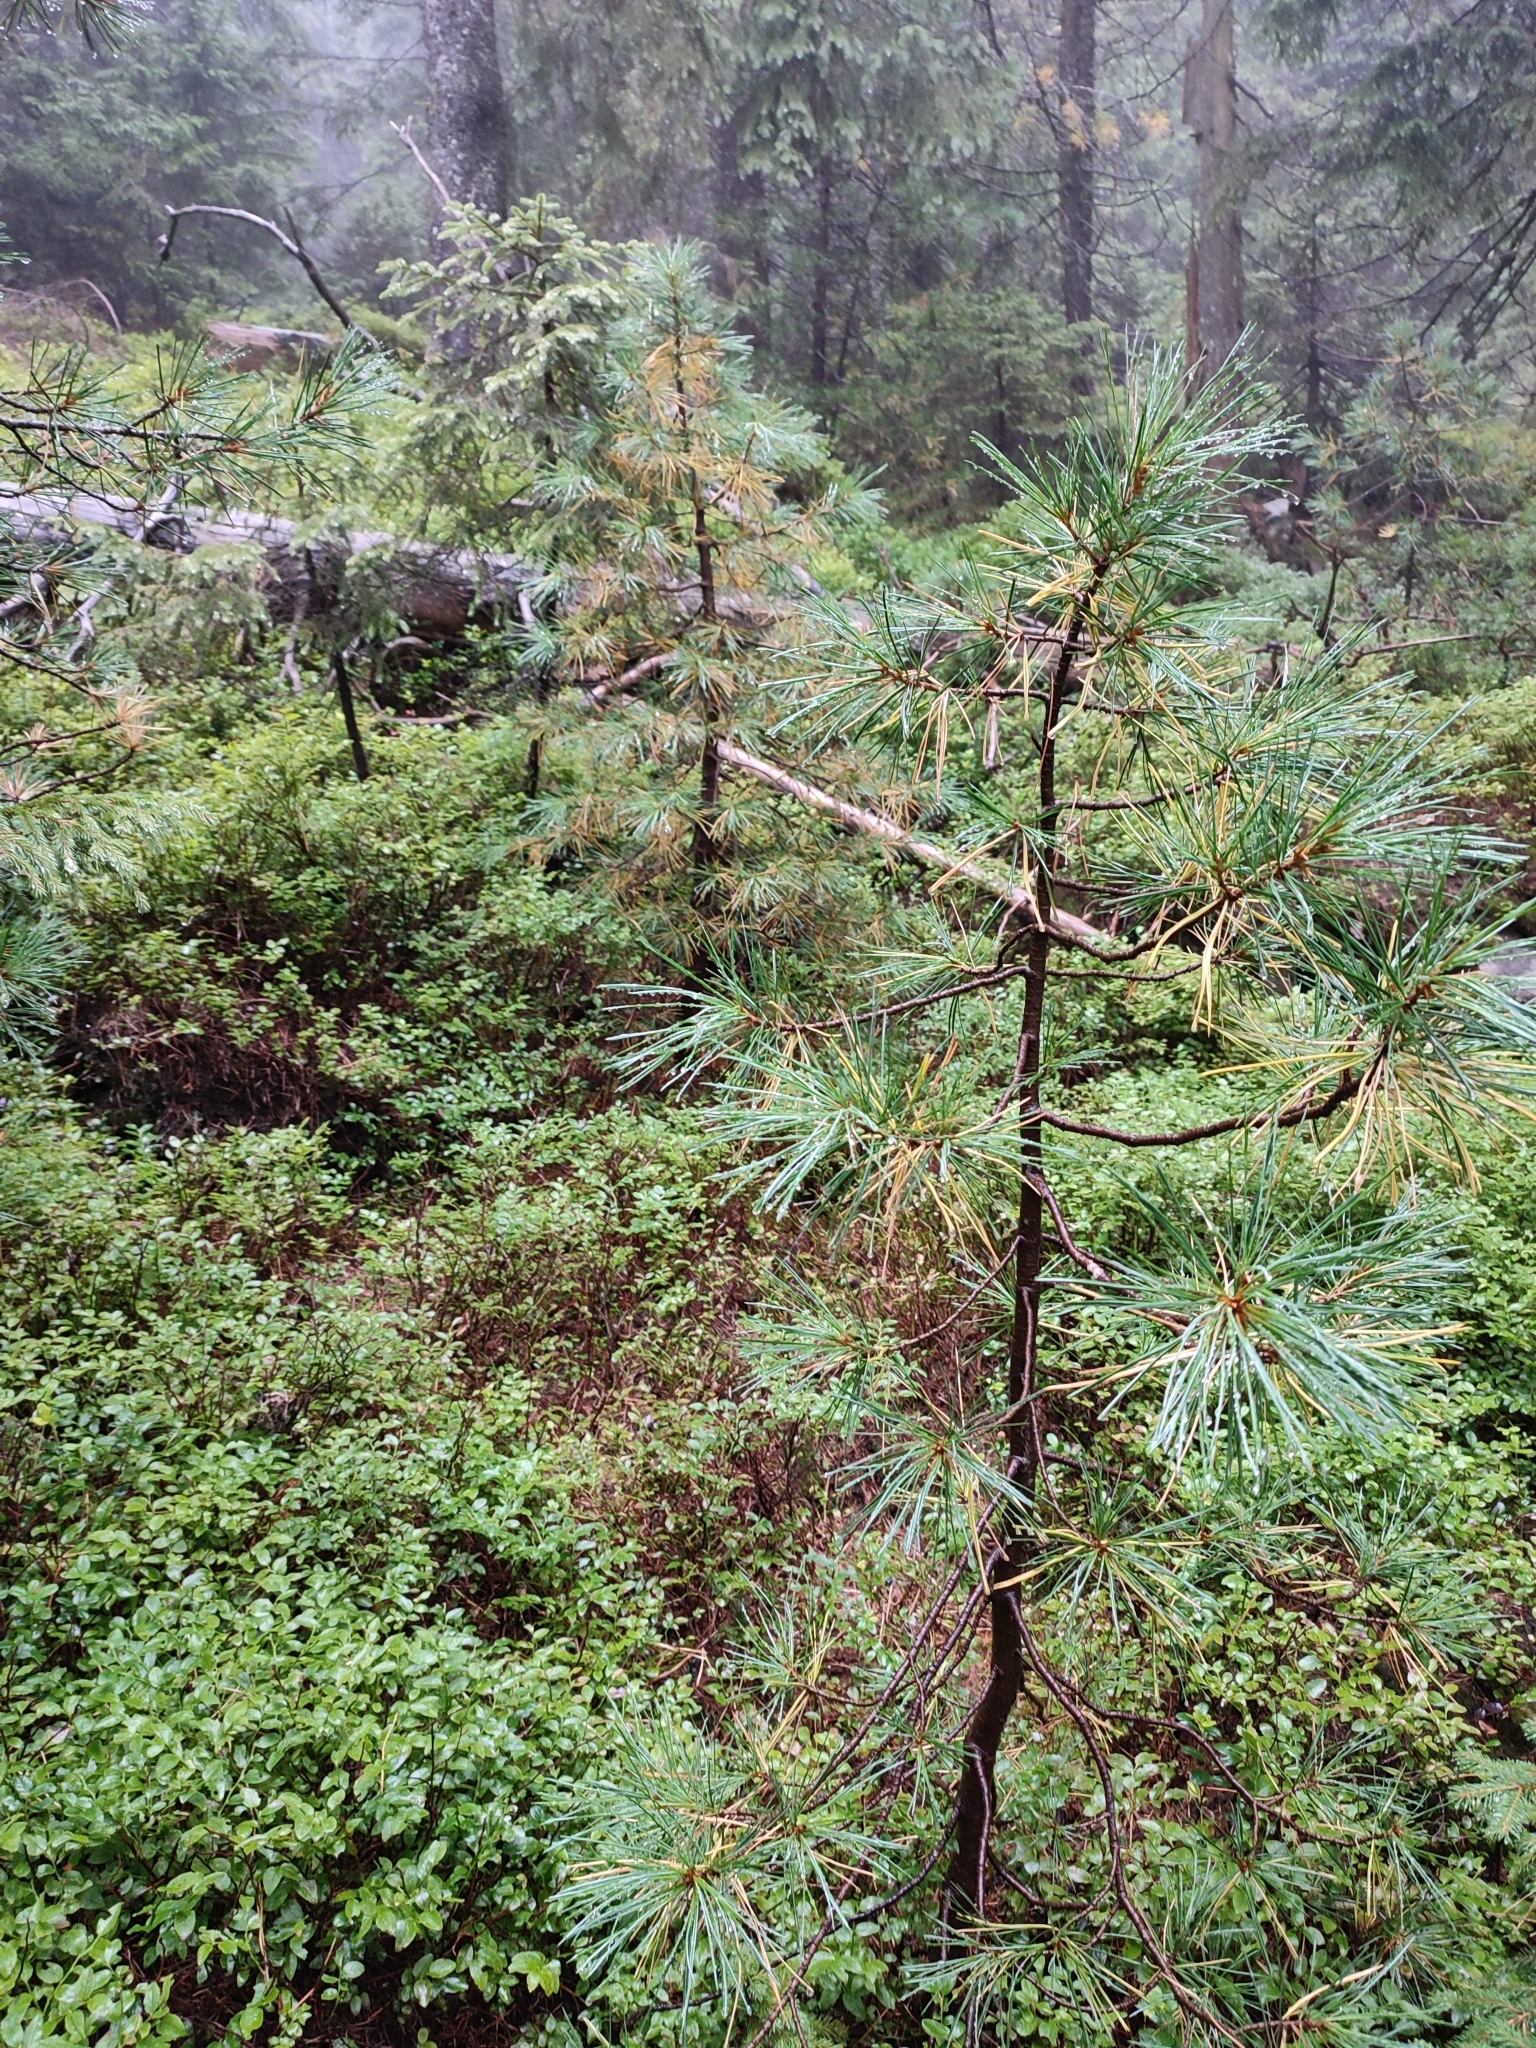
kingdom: Plantae
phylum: Tracheophyta
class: Pinopsida
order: Pinales
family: Pinaceae
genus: Pinus
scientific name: Pinus cembra
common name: Arolla pine
